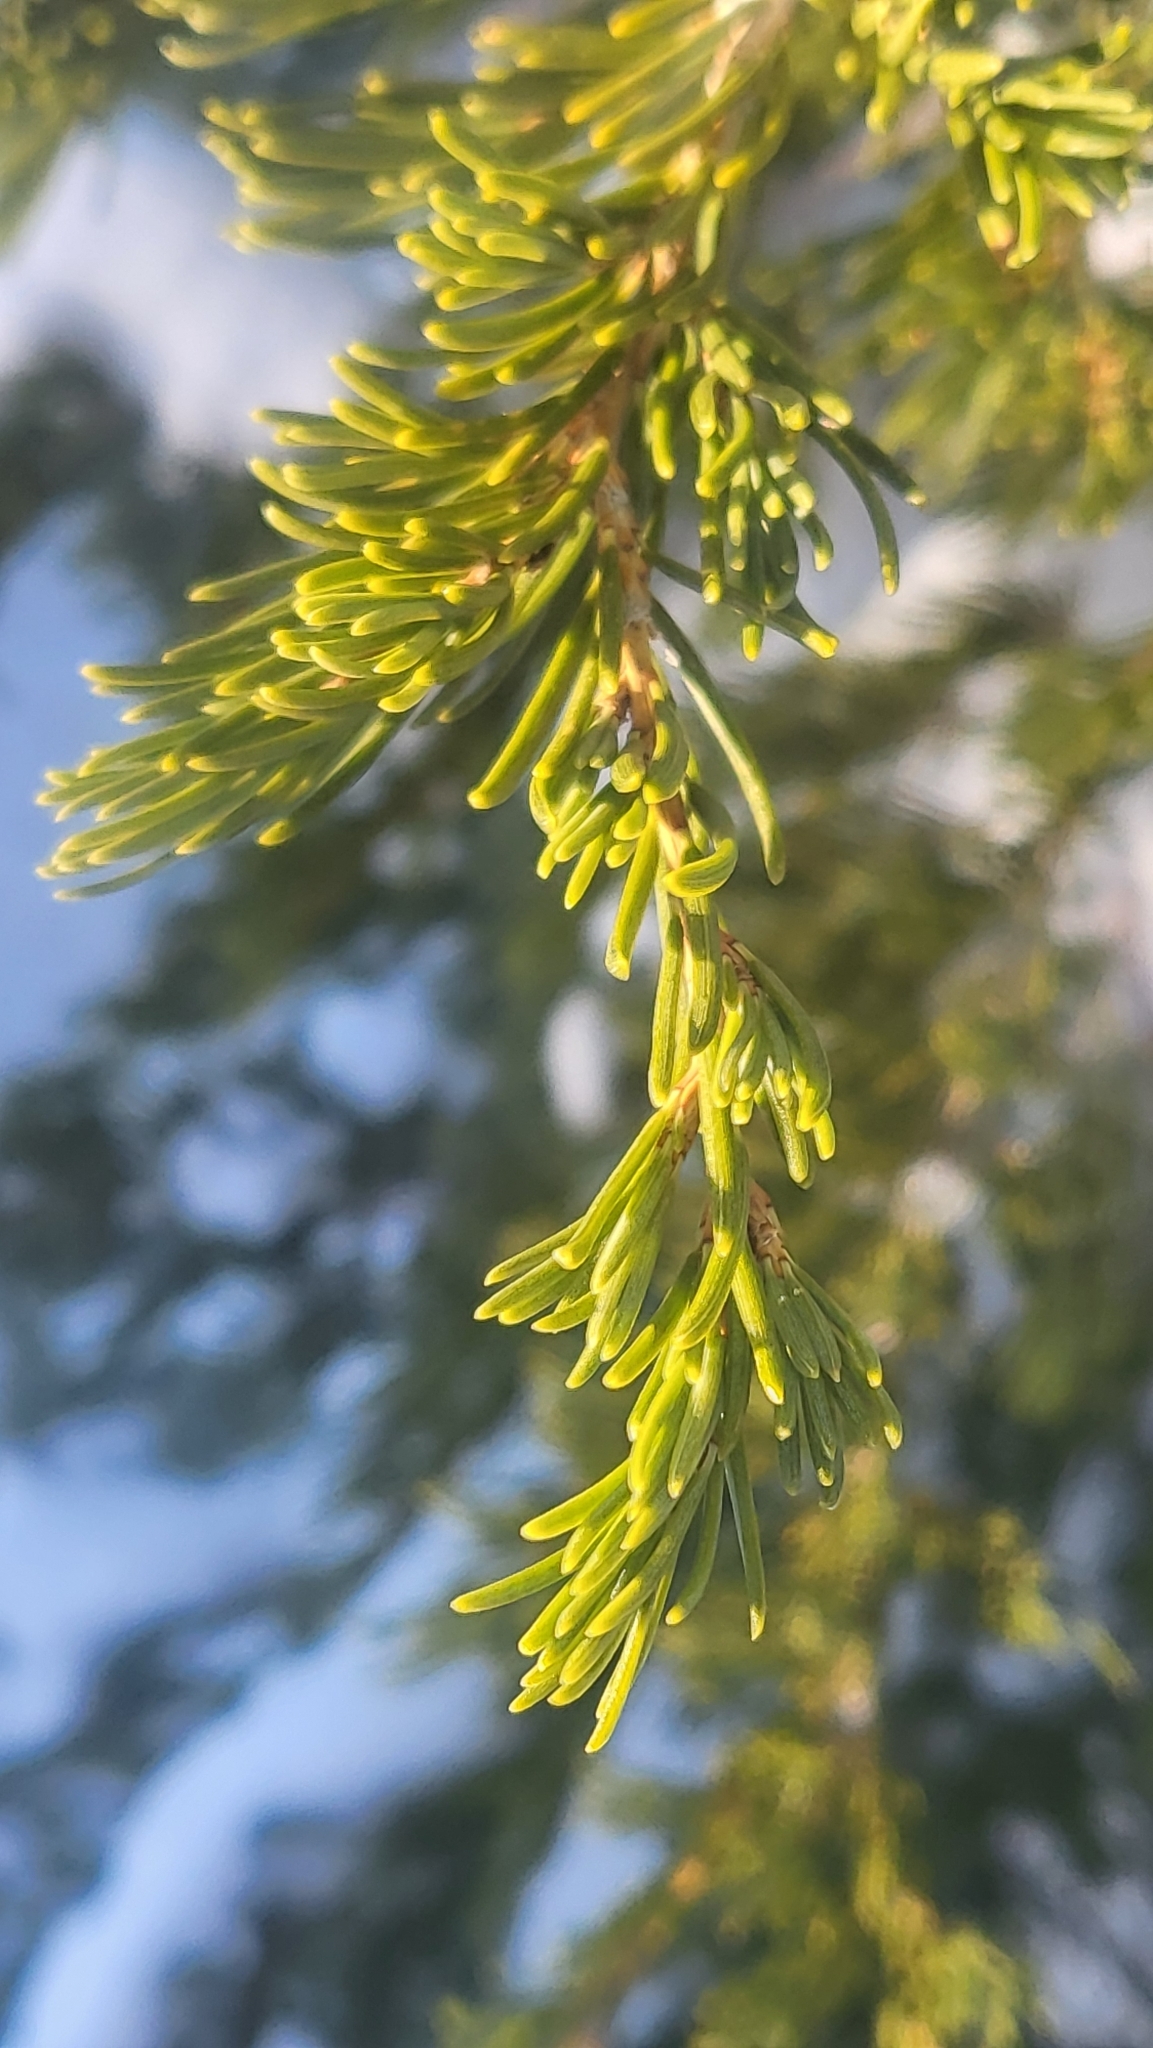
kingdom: Plantae
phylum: Tracheophyta
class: Pinopsida
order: Pinales
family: Pinaceae
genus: Tsuga
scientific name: Tsuga mertensiana
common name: Mountain hemlock
